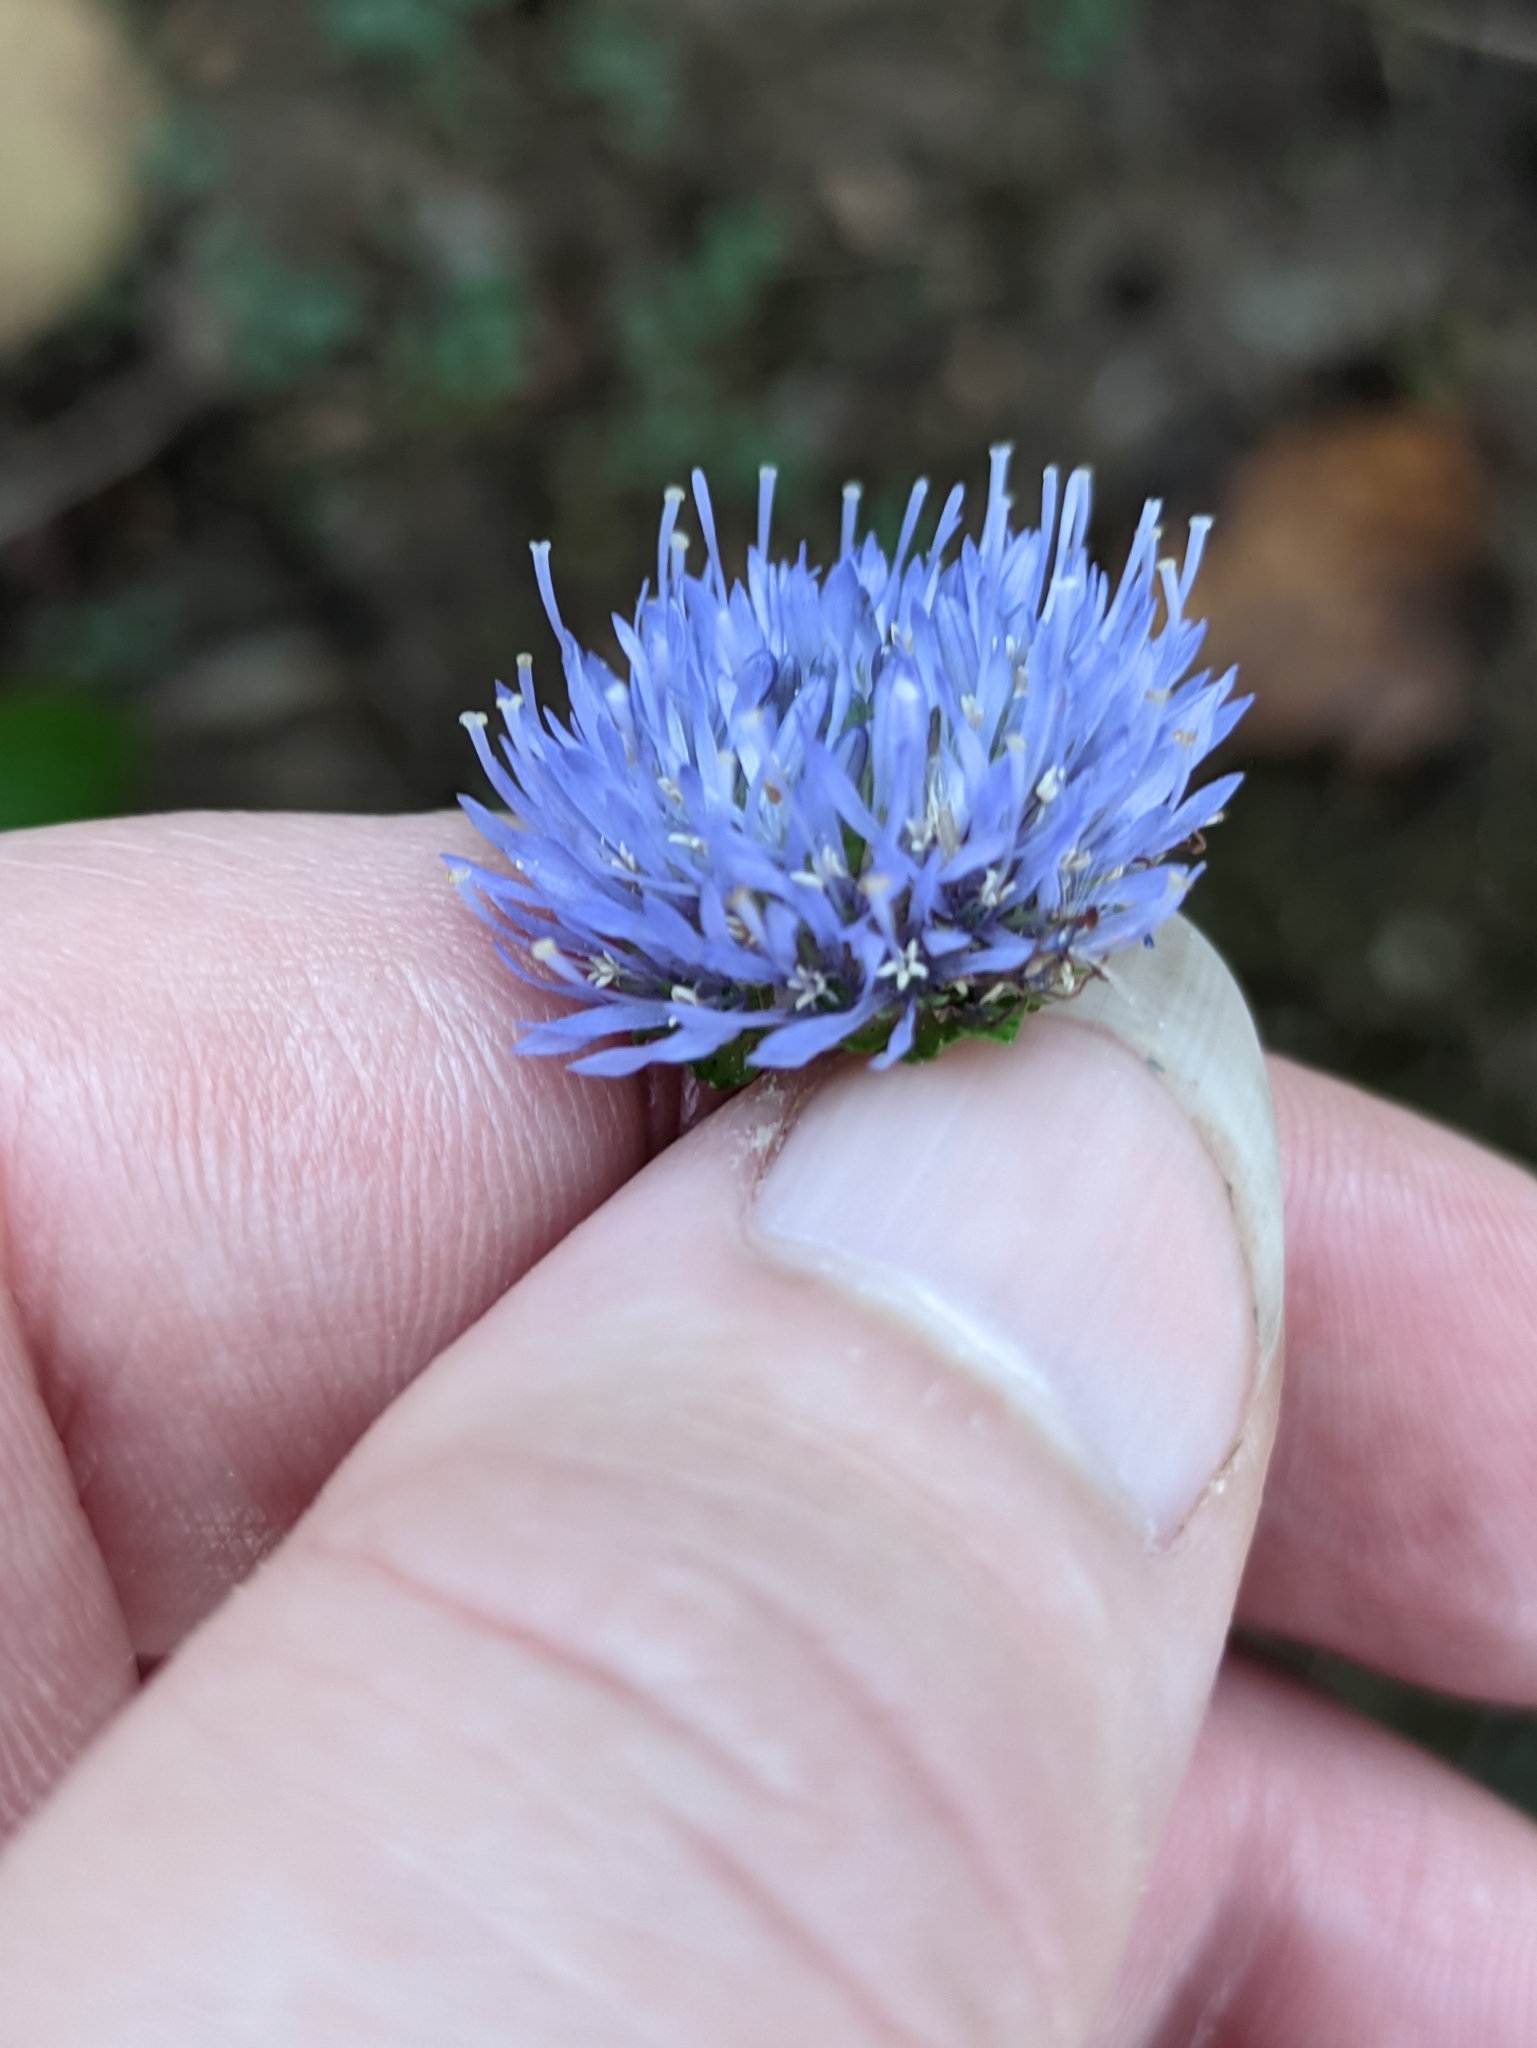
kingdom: Plantae
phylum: Tracheophyta
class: Magnoliopsida
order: Asterales
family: Campanulaceae
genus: Jasione
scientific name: Jasione montana
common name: Sheep's-bit
